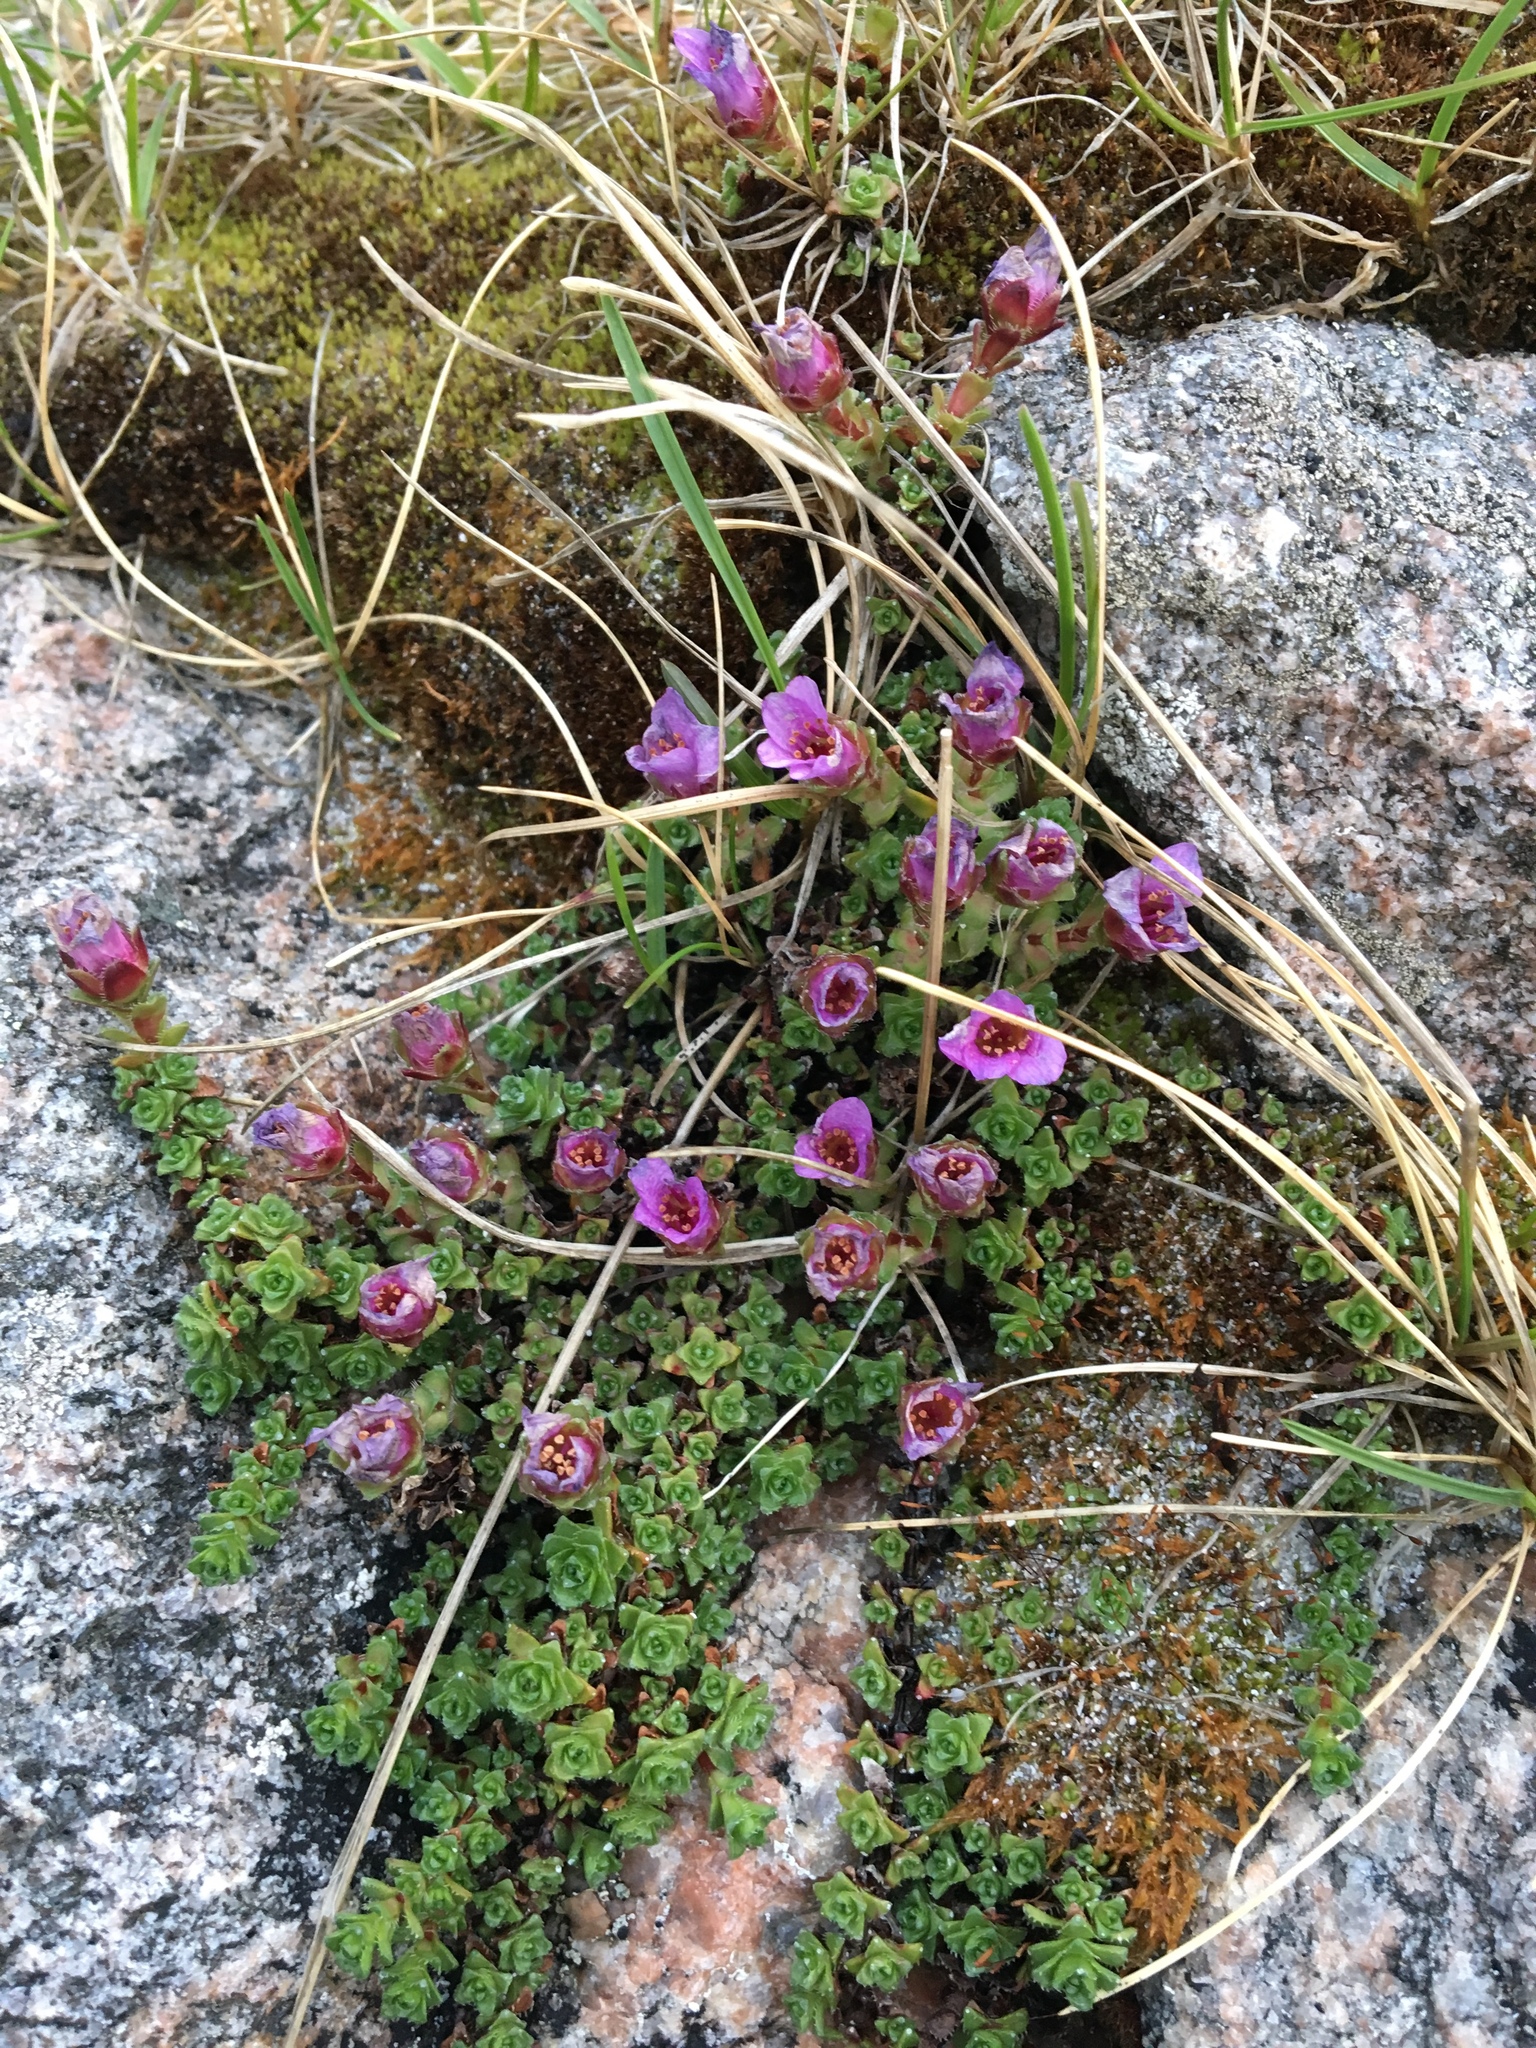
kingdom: Plantae
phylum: Tracheophyta
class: Magnoliopsida
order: Saxifragales
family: Saxifragaceae
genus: Saxifraga
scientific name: Saxifraga oppositifolia
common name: Purple saxifrage
